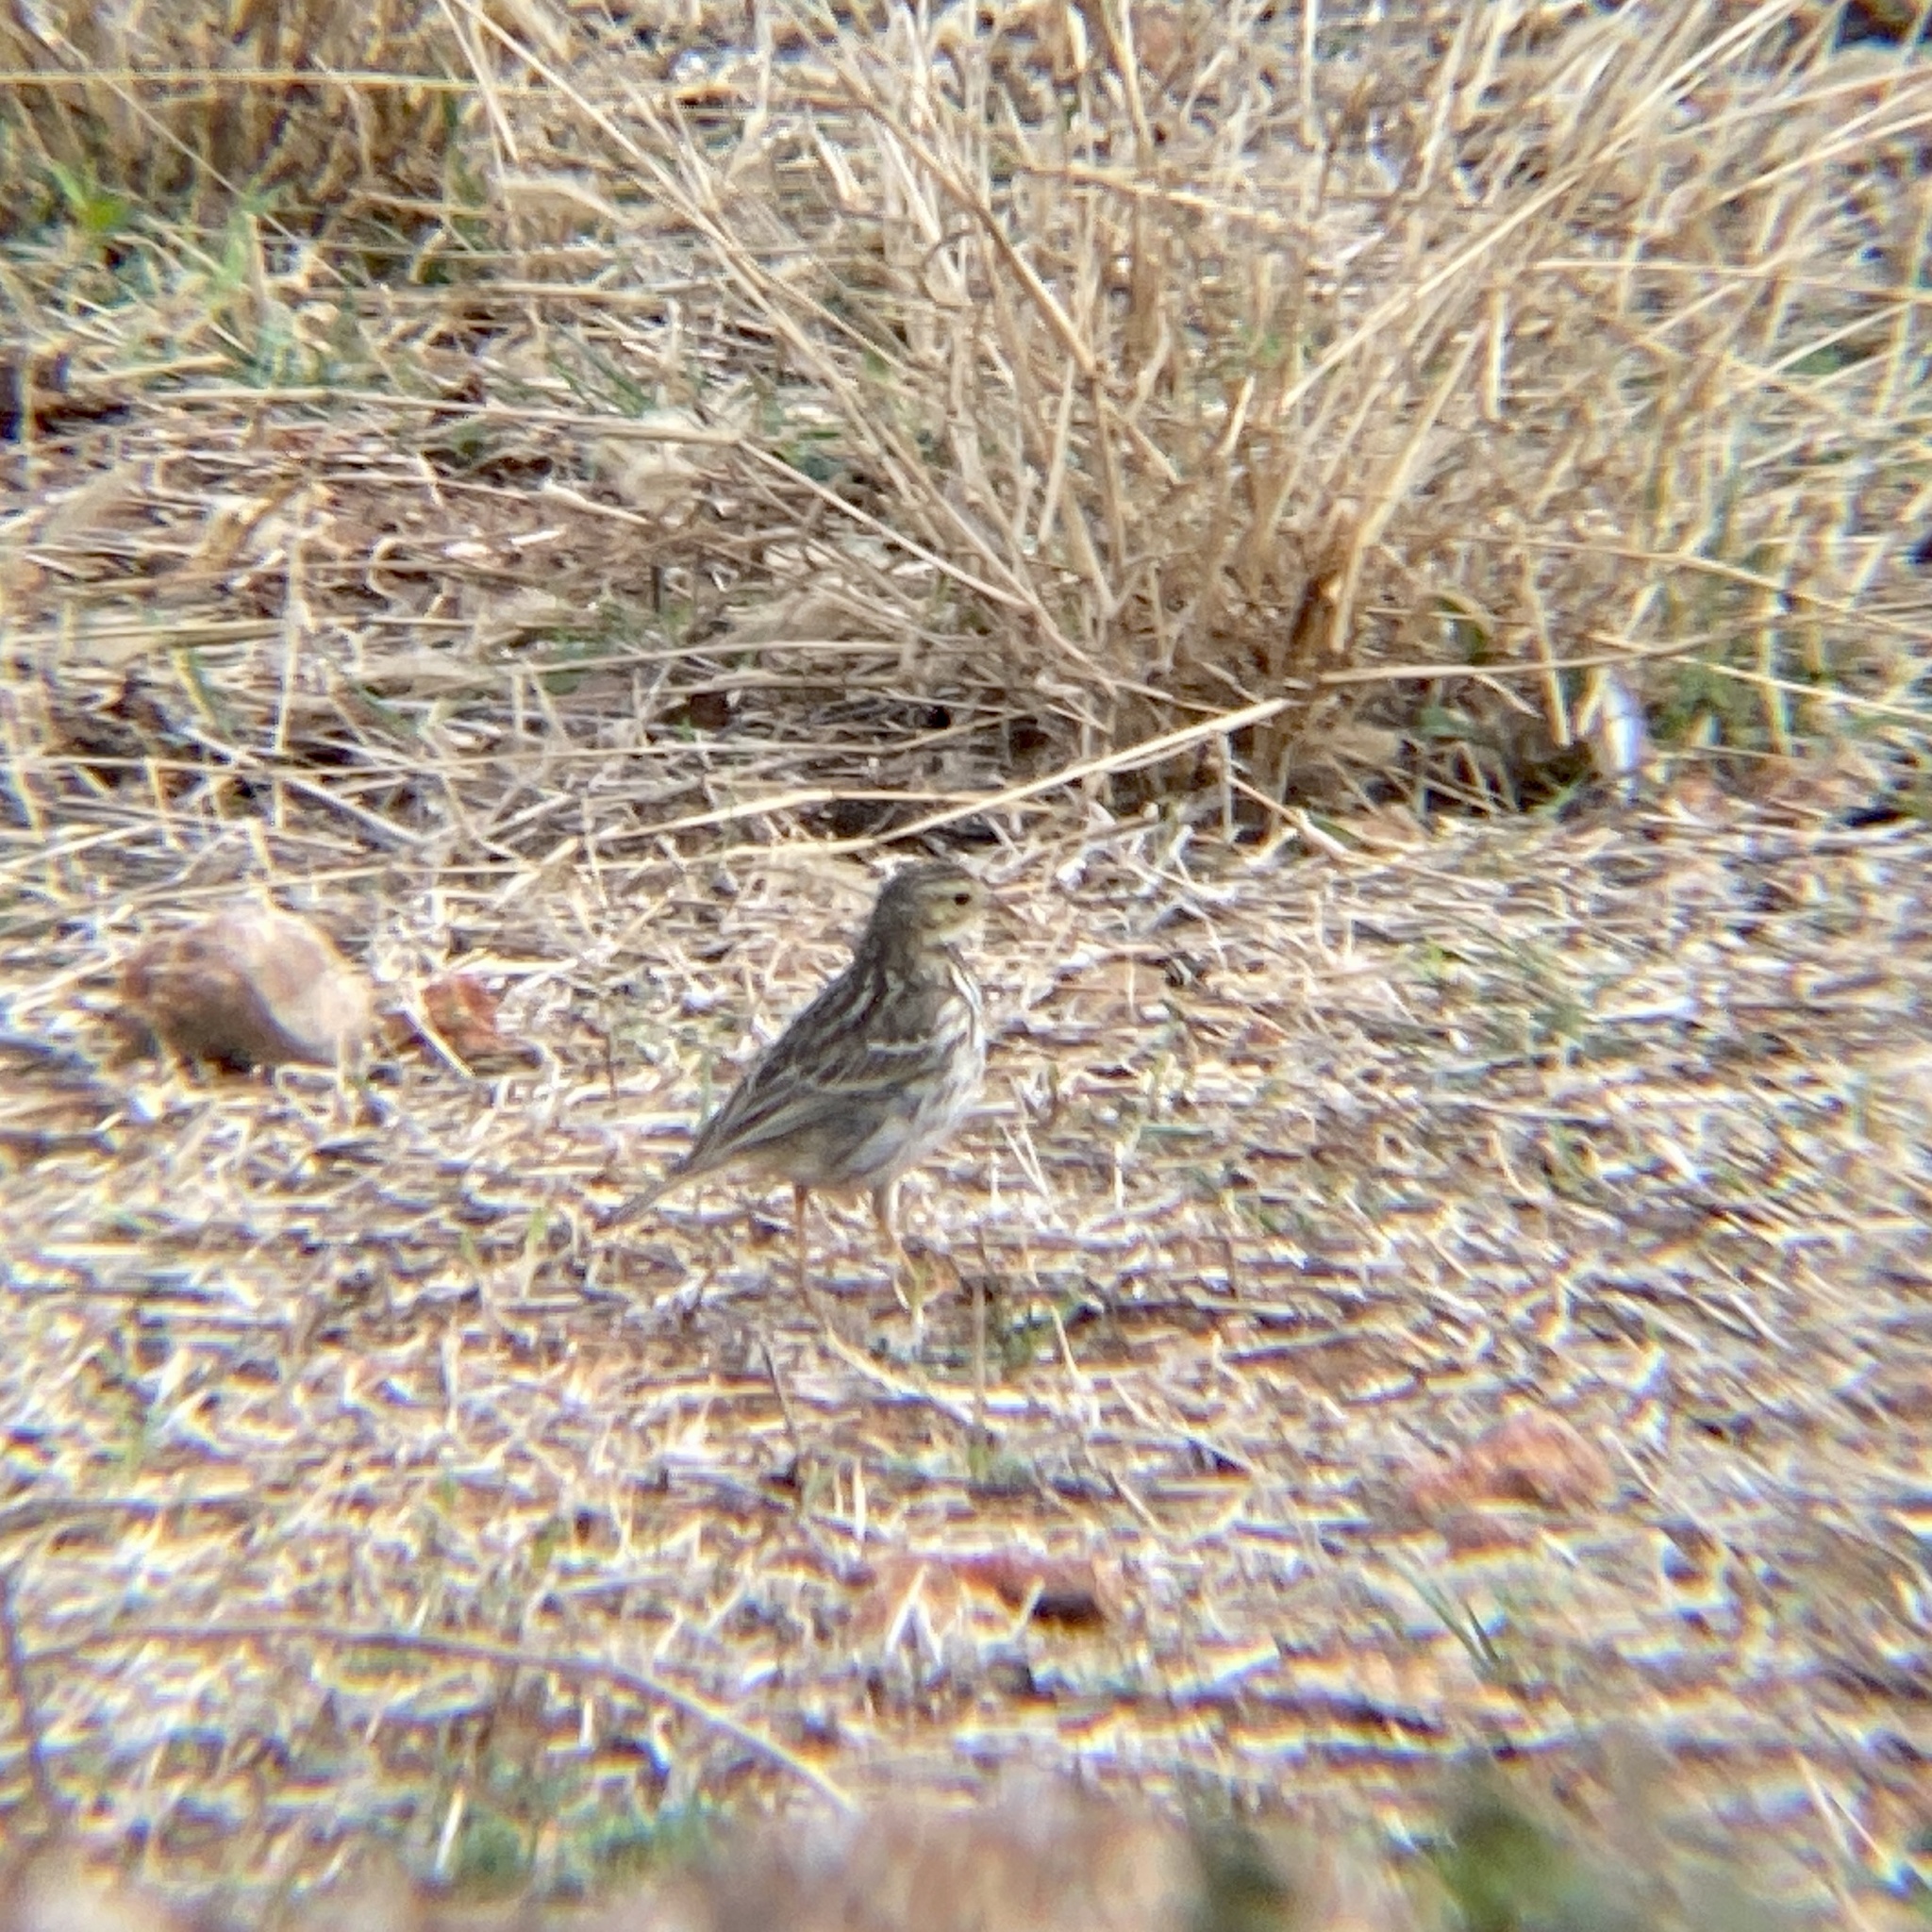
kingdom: Animalia
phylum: Chordata
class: Aves
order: Passeriformes
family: Motacillidae
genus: Anthus
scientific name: Anthus pratensis
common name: Meadow pipit
